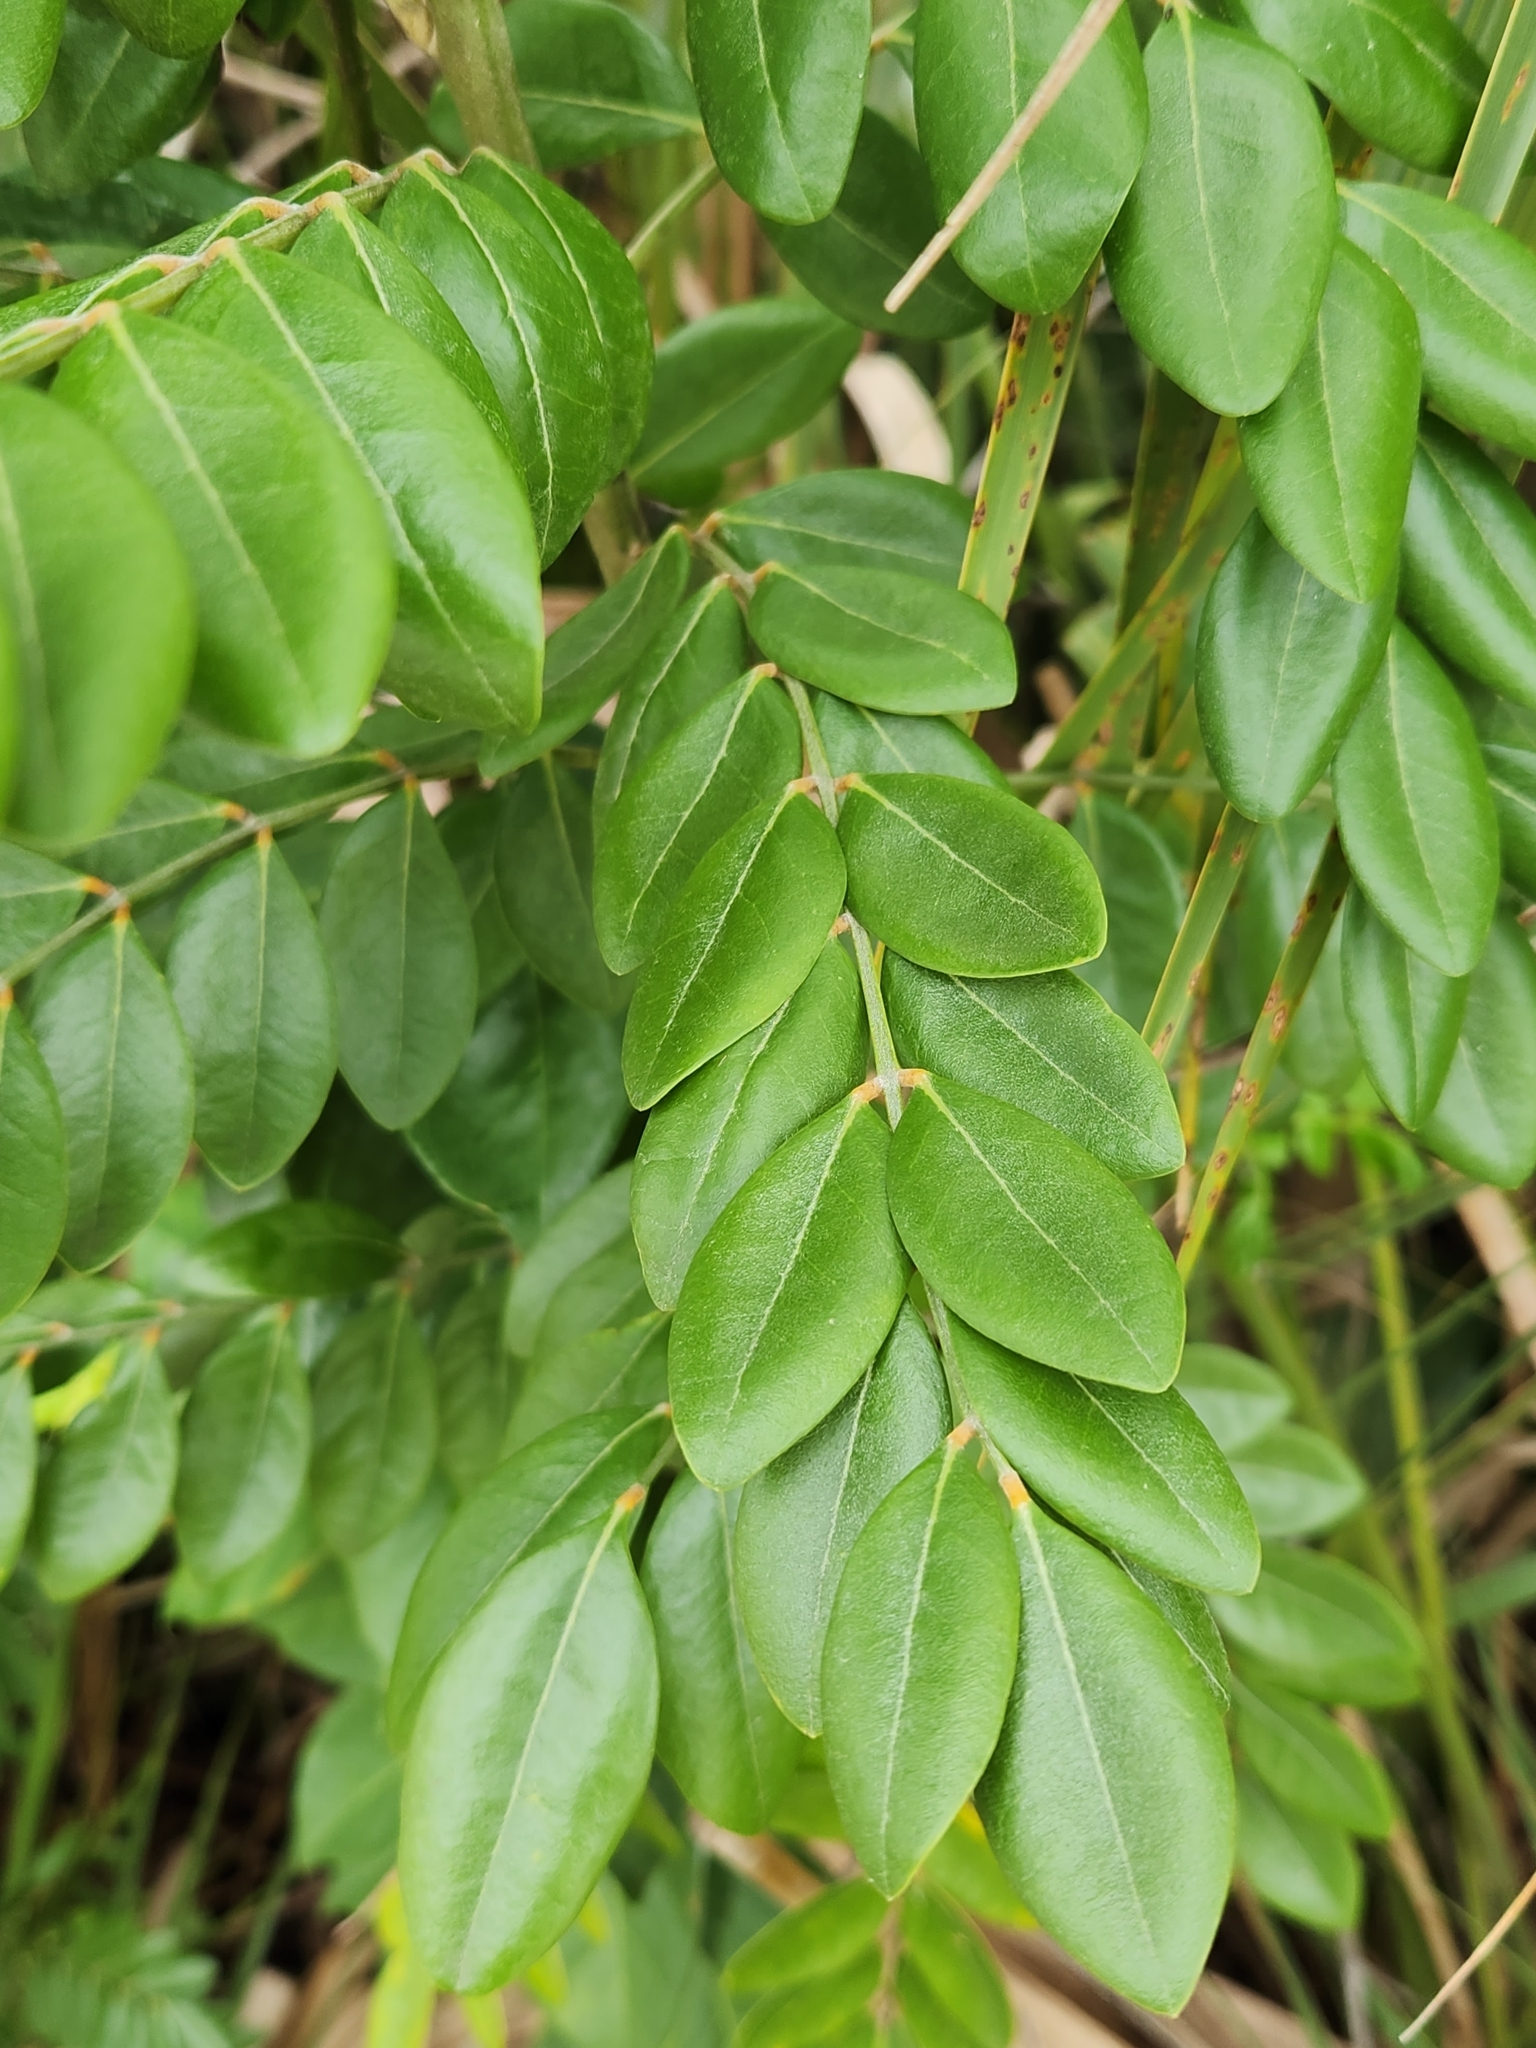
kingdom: Plantae
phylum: Tracheophyta
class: Magnoliopsida
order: Fabales
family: Fabaceae
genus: Sophora
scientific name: Sophora tomentosa
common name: Yellow necklacepod
